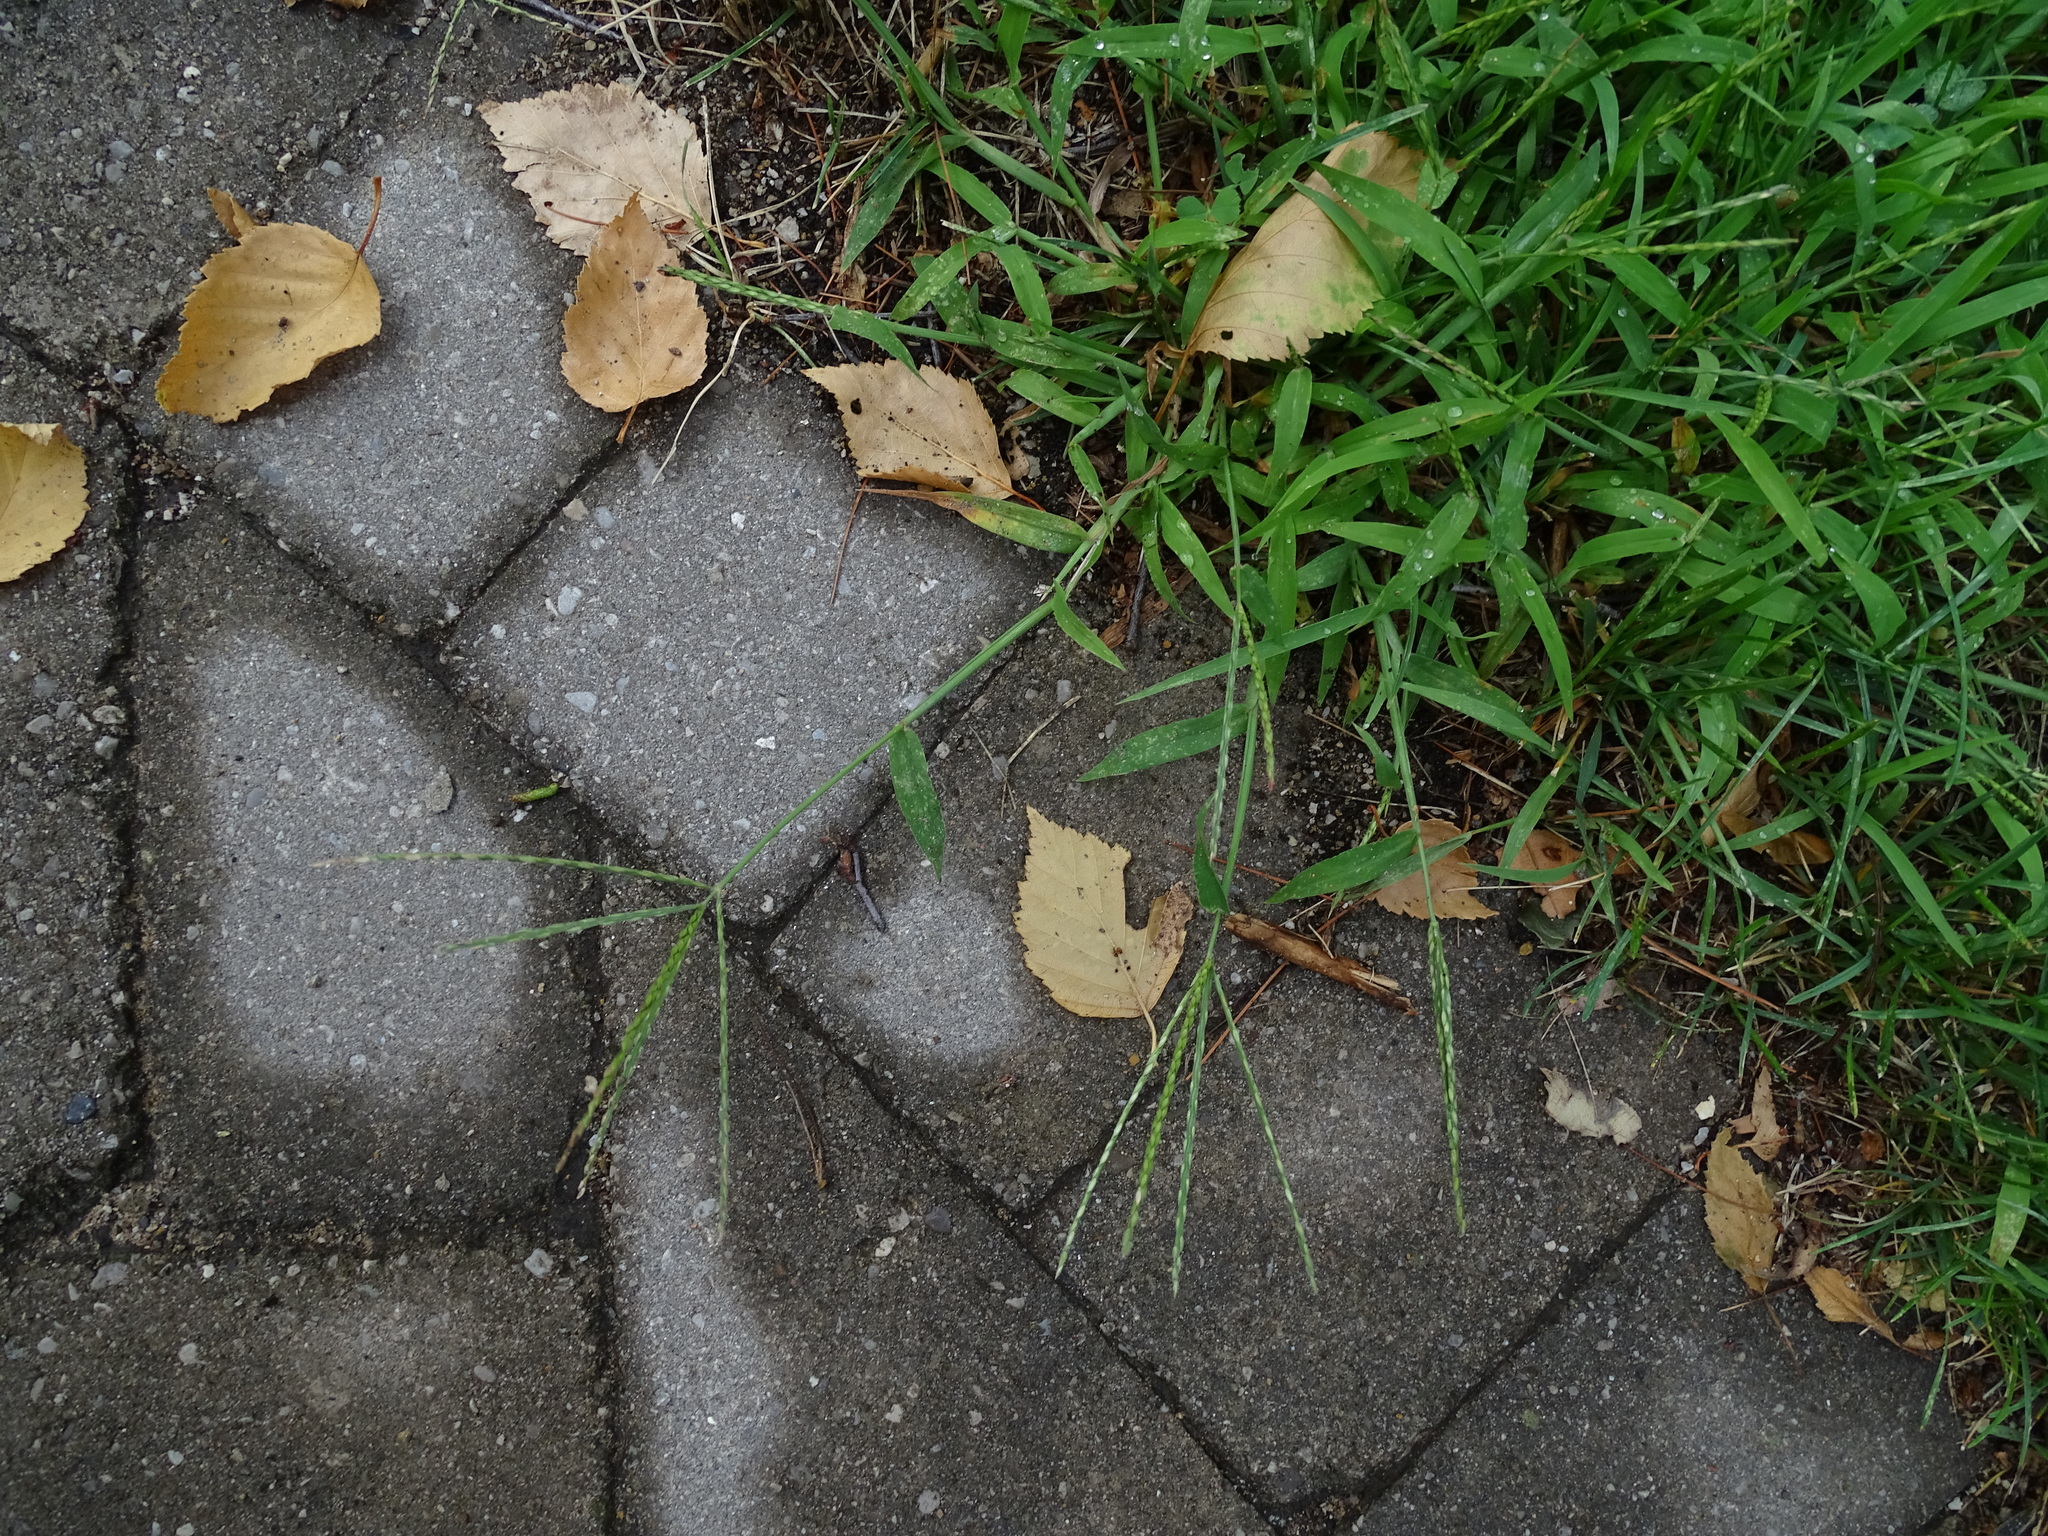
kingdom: Plantae
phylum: Tracheophyta
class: Liliopsida
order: Poales
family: Poaceae
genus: Digitaria
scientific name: Digitaria sanguinalis
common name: Hairy crabgrass
